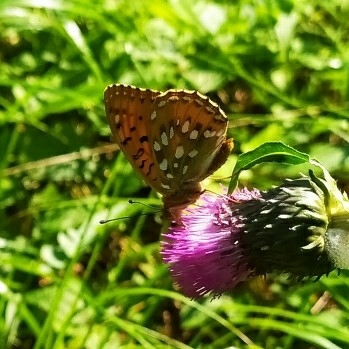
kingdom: Animalia
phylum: Arthropoda
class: Insecta
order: Lepidoptera
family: Nymphalidae
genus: Speyeria
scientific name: Speyeria aglaja
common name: Dark green fritillary
